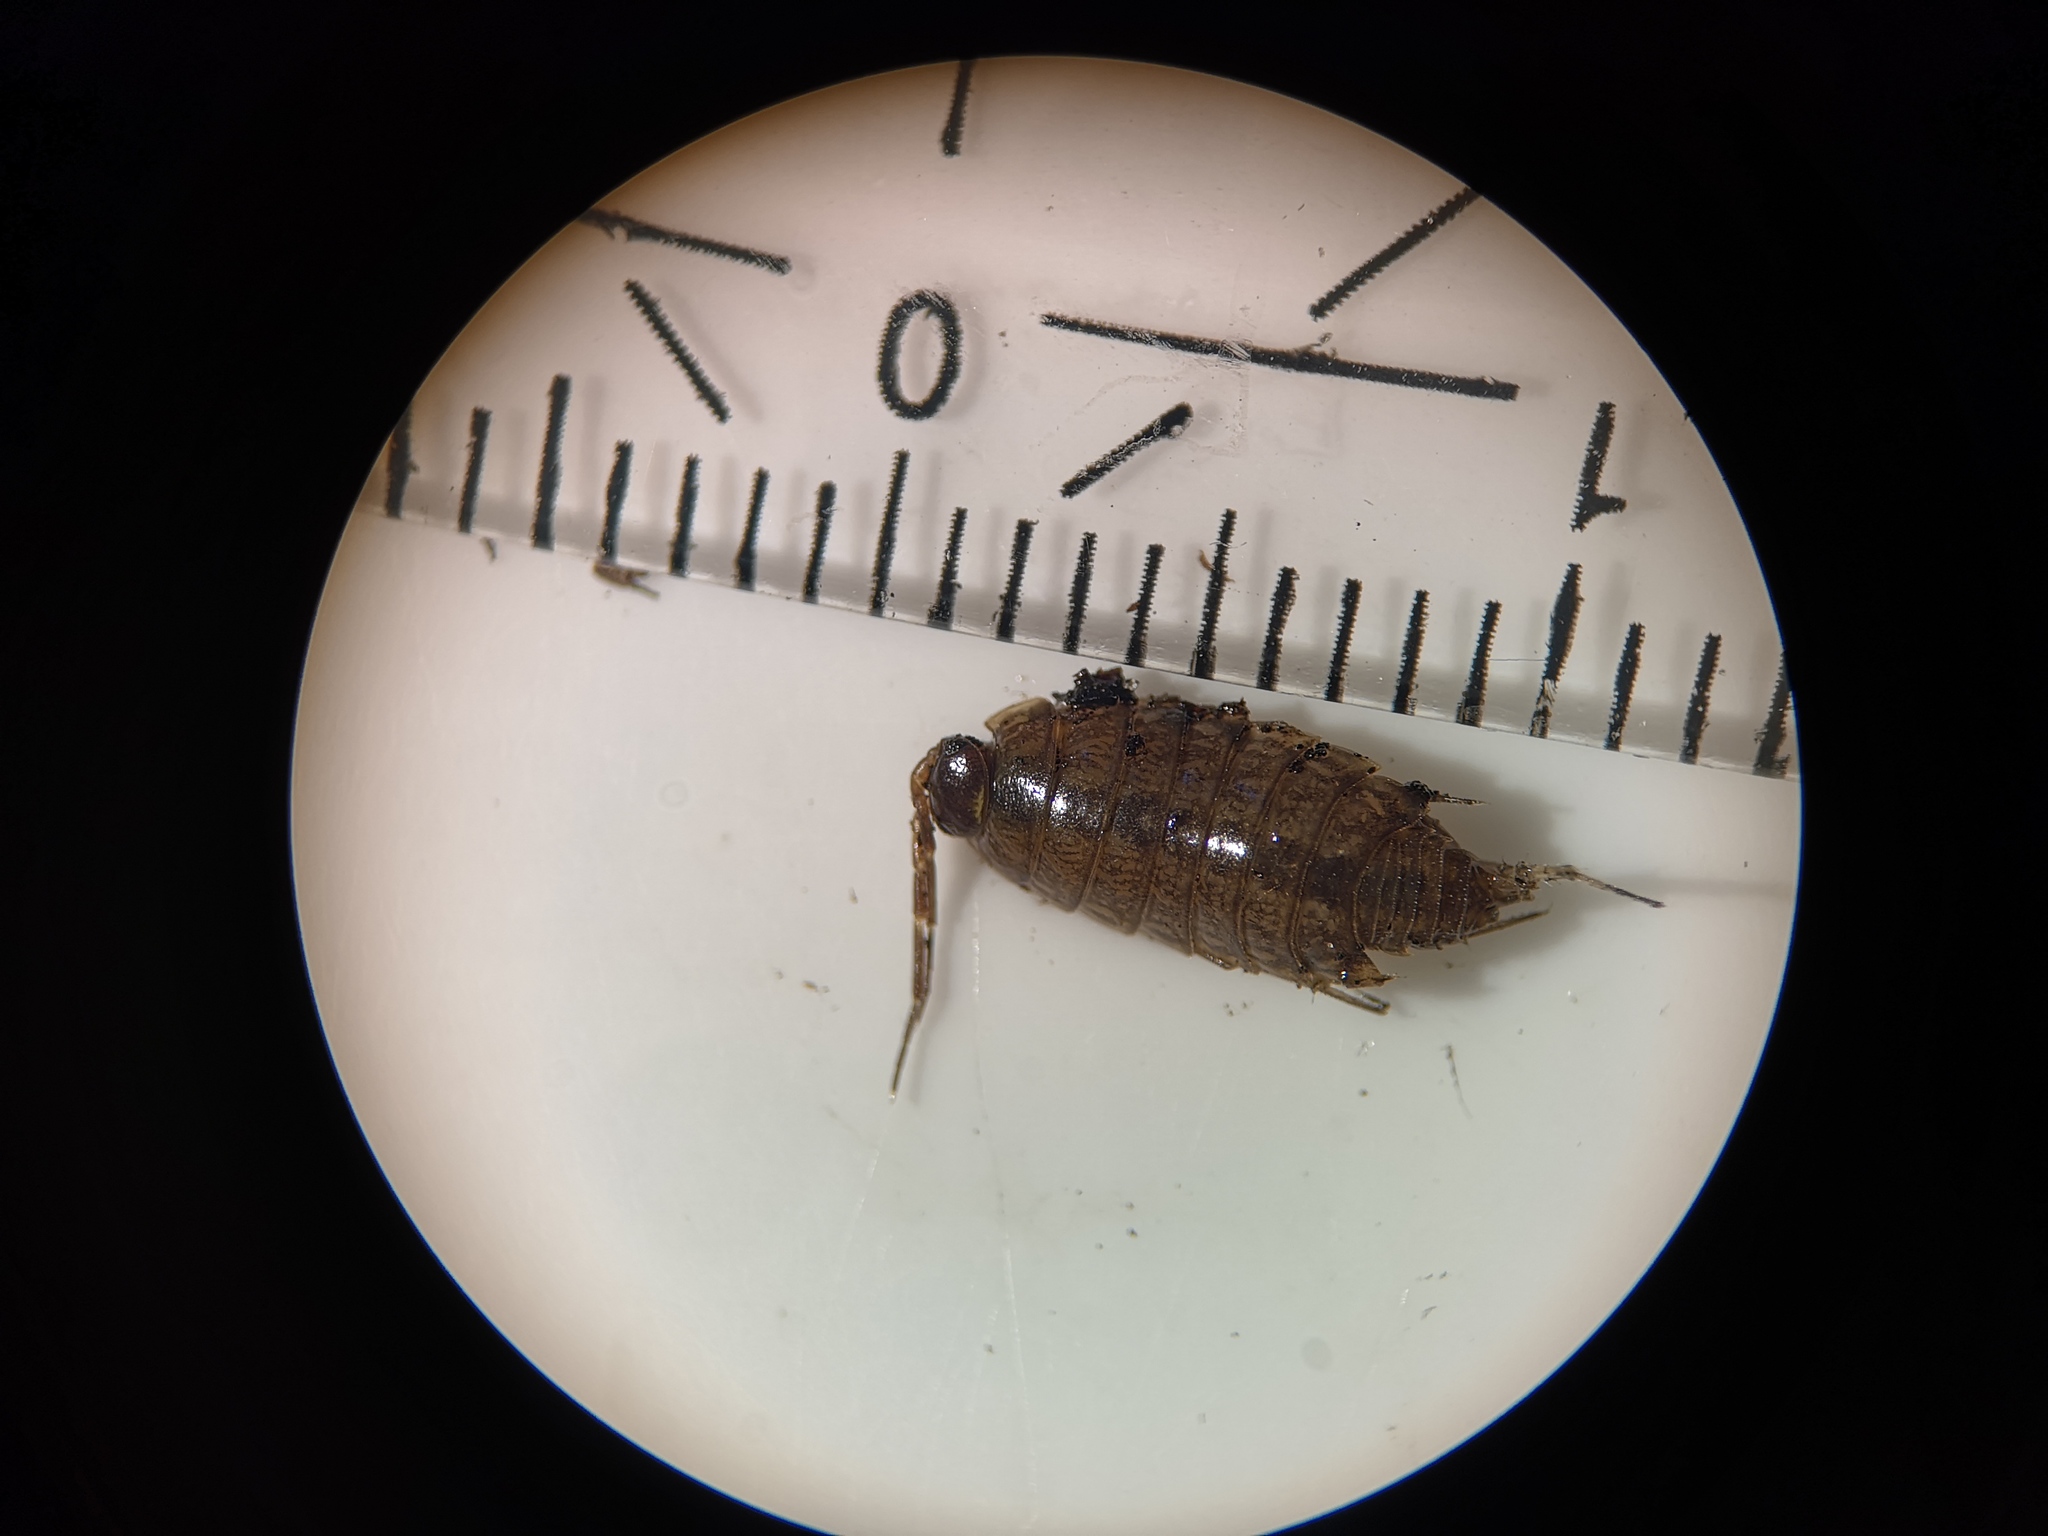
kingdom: Animalia
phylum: Arthropoda
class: Malacostraca
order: Isopoda
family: Philosciidae
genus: Philoscia
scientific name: Philoscia muscorum
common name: Common striped woodlouse
